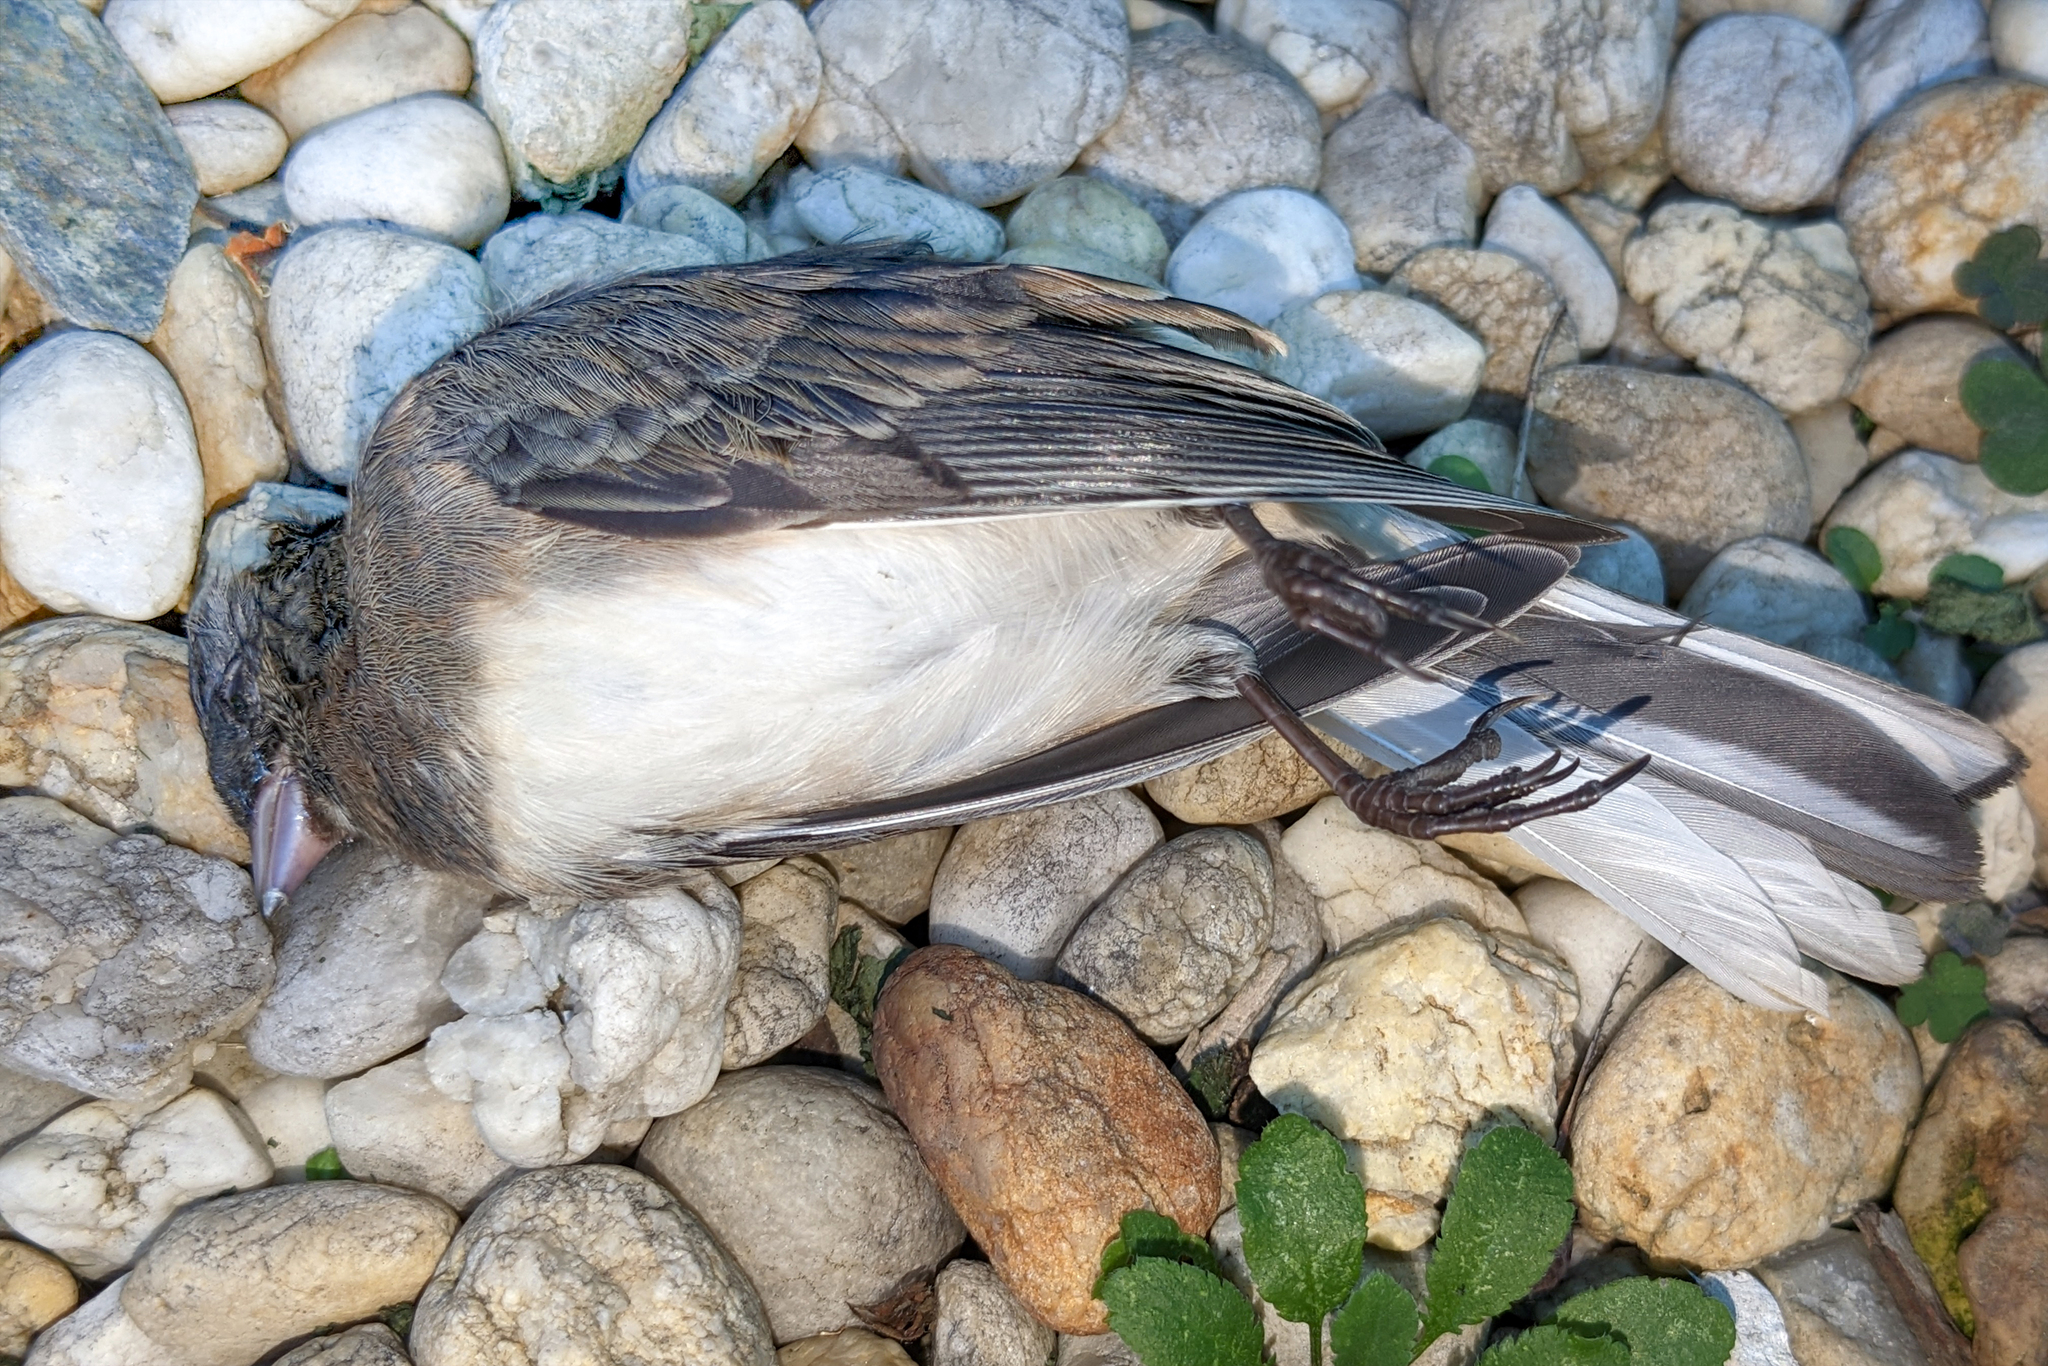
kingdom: Animalia
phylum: Chordata
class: Aves
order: Passeriformes
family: Passerellidae
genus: Junco
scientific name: Junco hyemalis
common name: Dark-eyed junco
